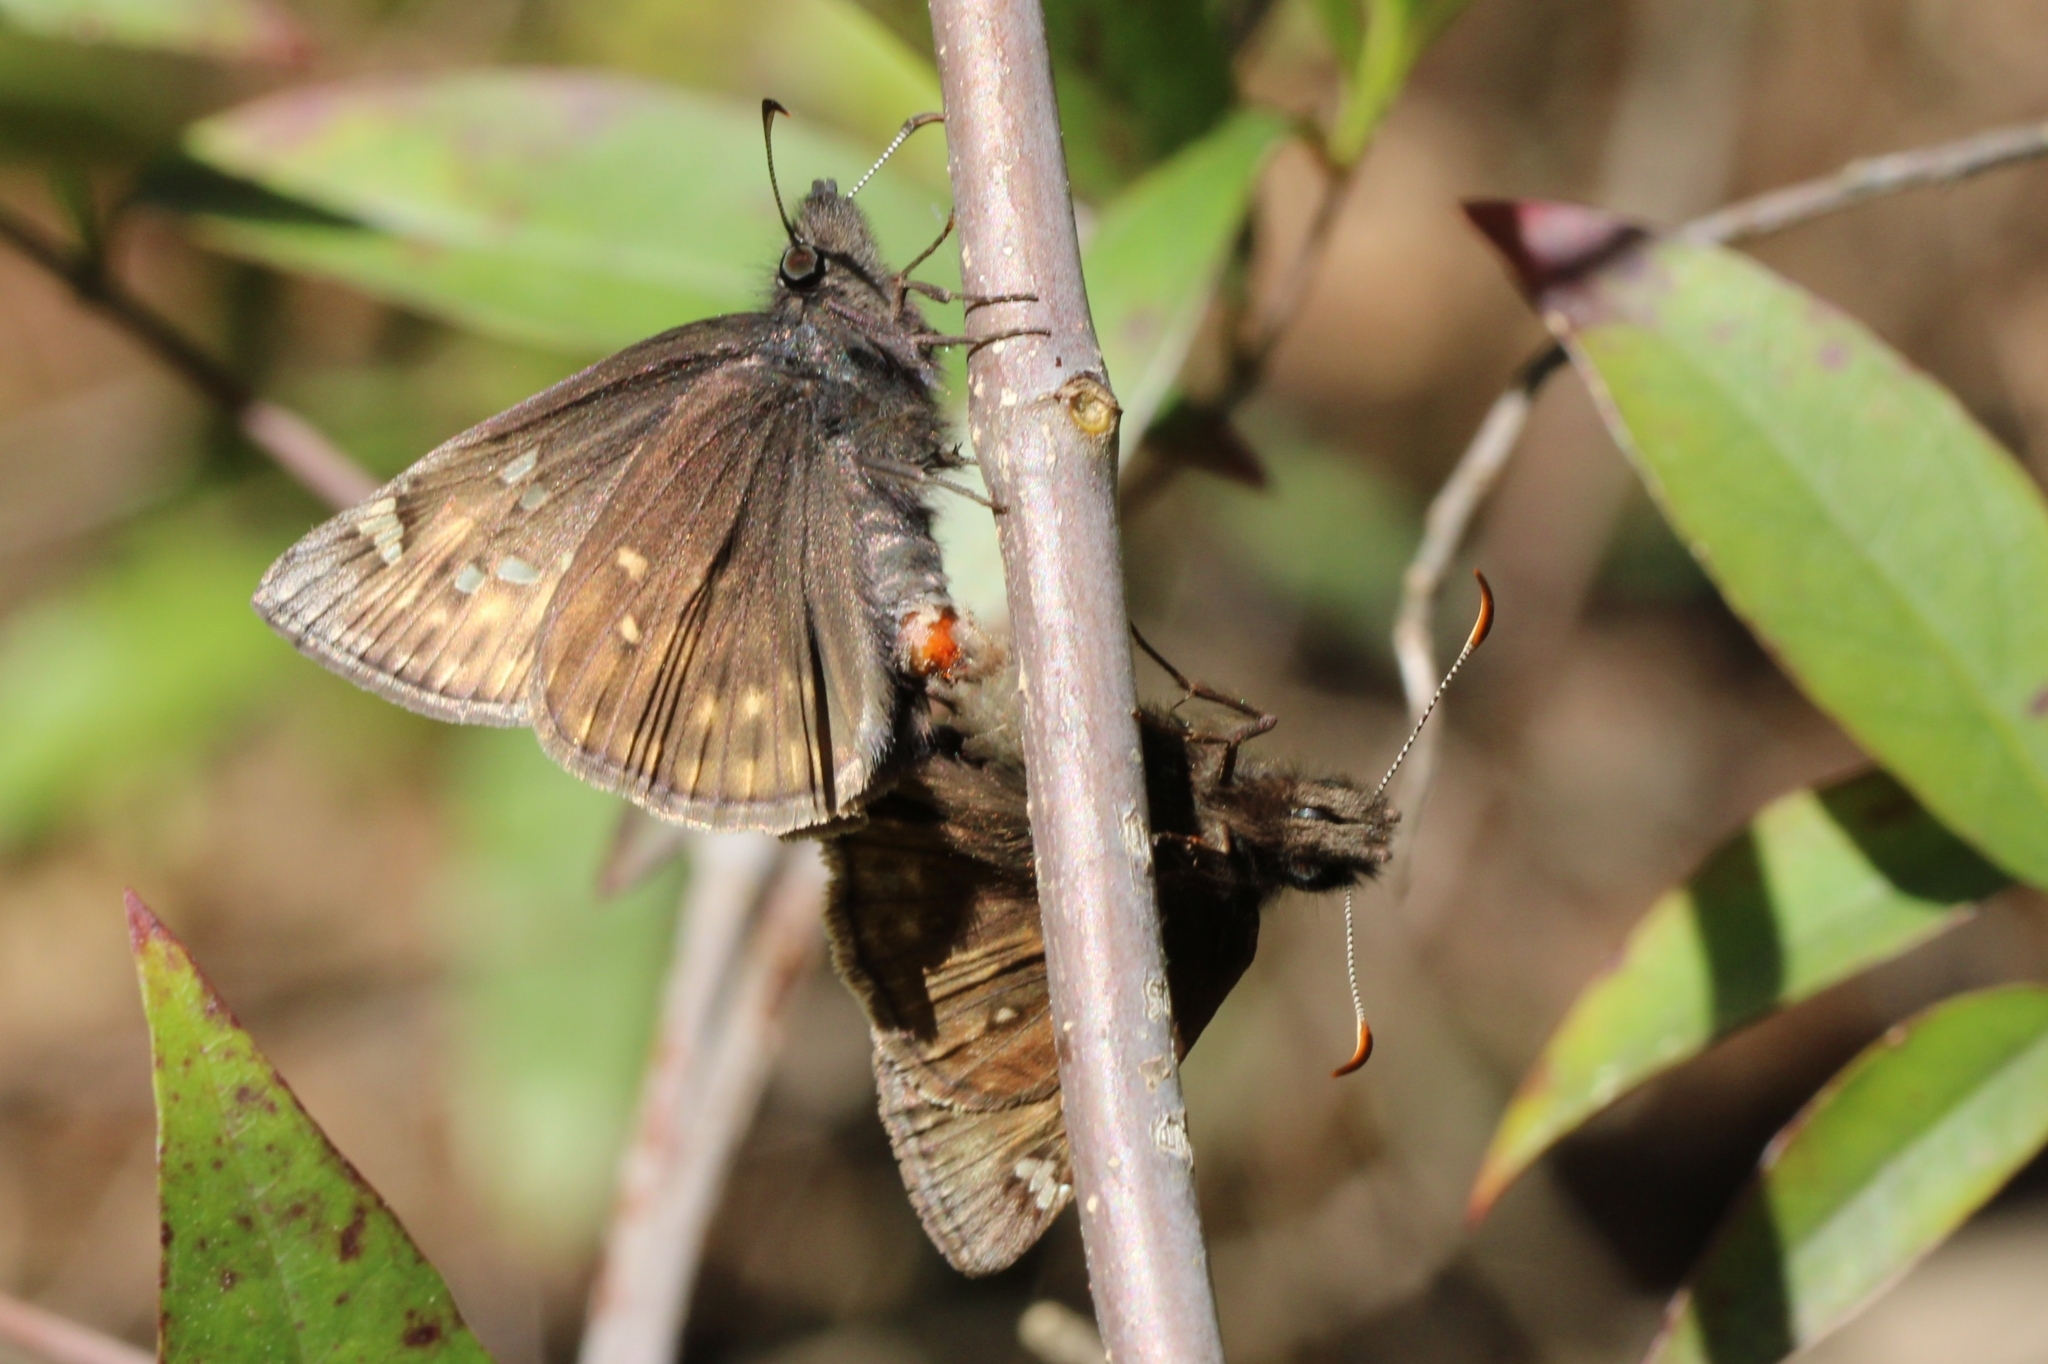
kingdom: Animalia
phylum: Arthropoda
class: Insecta
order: Lepidoptera
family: Hesperiidae
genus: Erynnis
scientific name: Erynnis juvenalis
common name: Juvenal's duskywing
